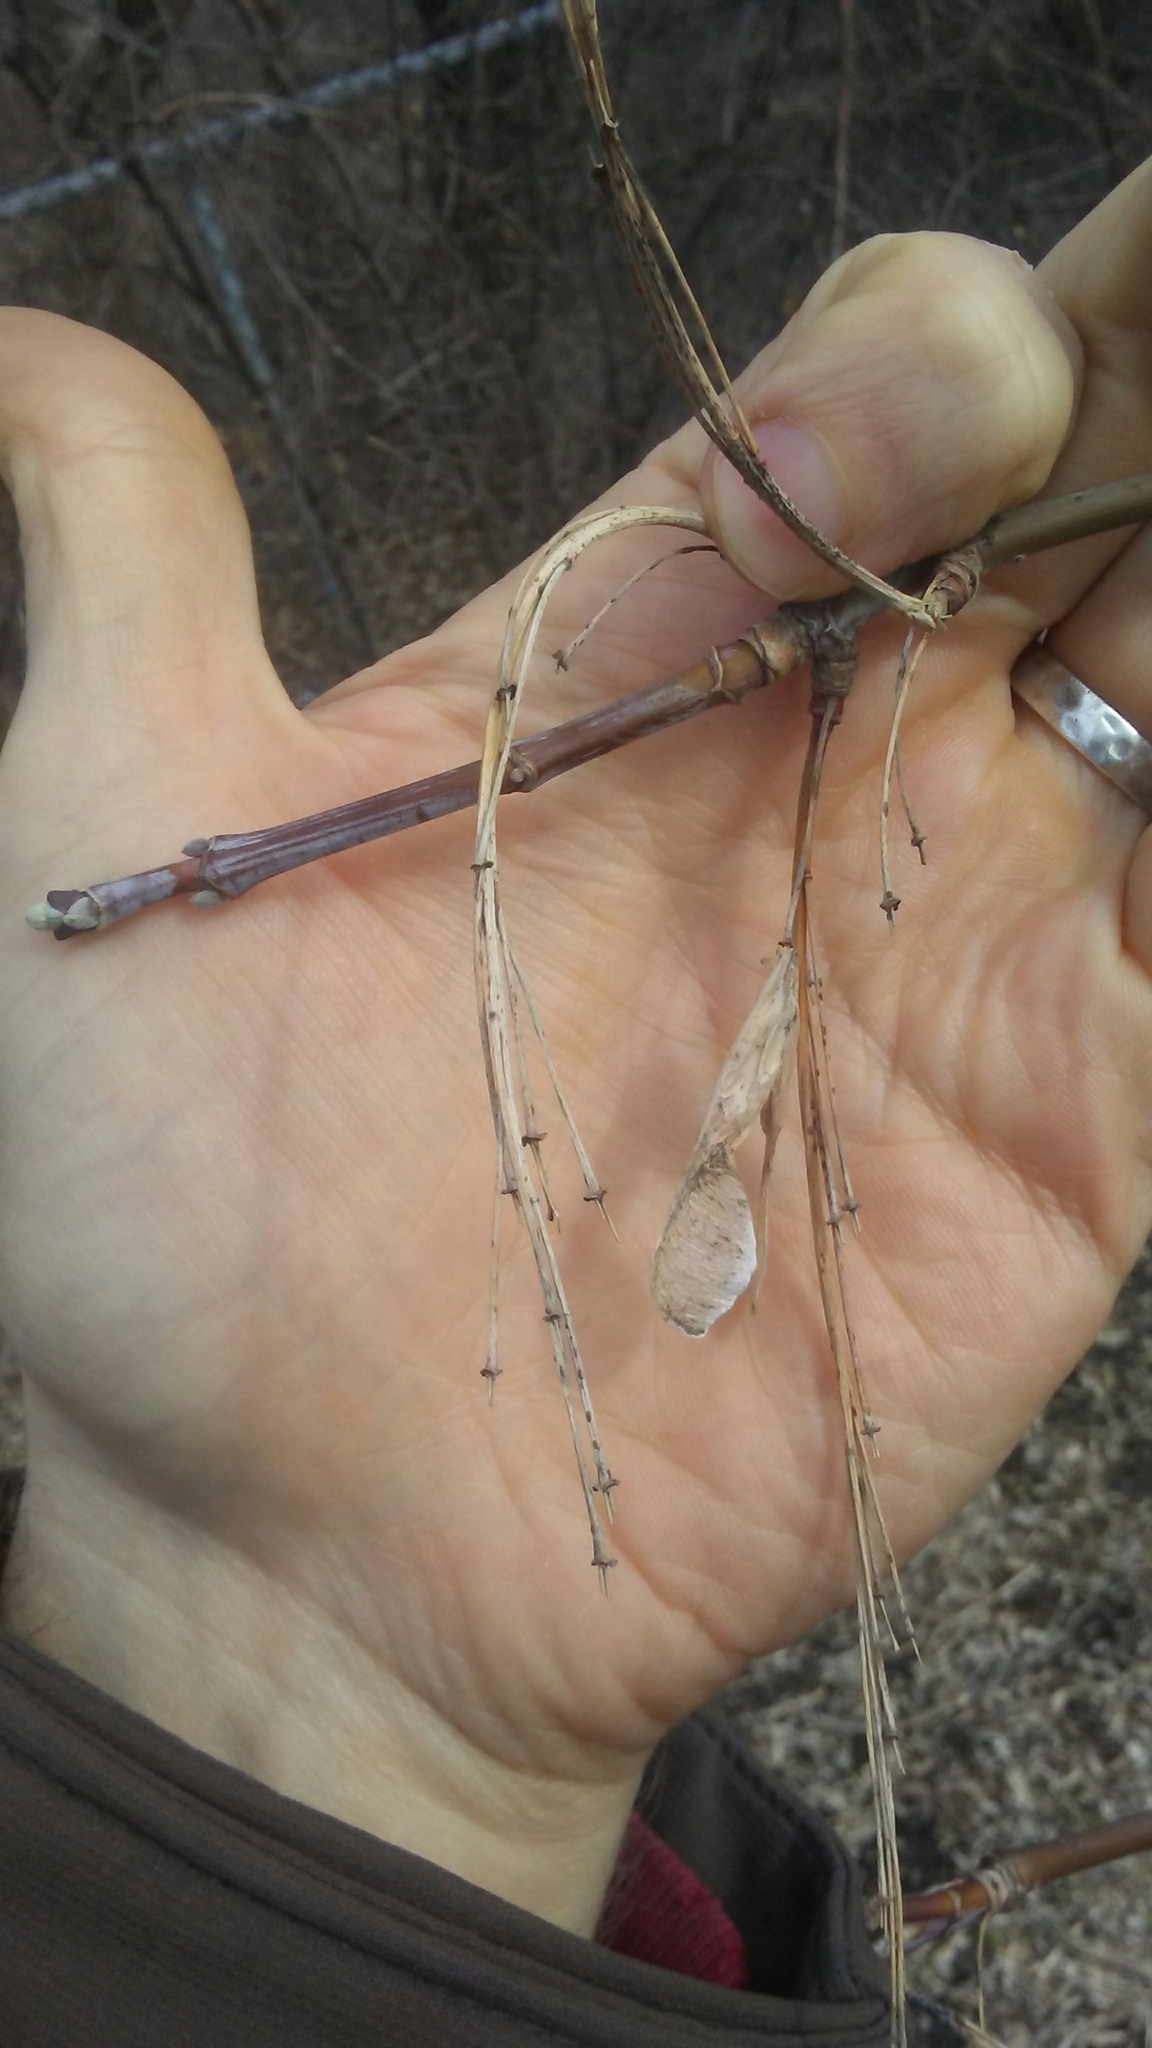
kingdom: Plantae
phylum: Tracheophyta
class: Magnoliopsida
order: Sapindales
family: Sapindaceae
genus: Acer
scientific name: Acer negundo
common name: Ashleaf maple
